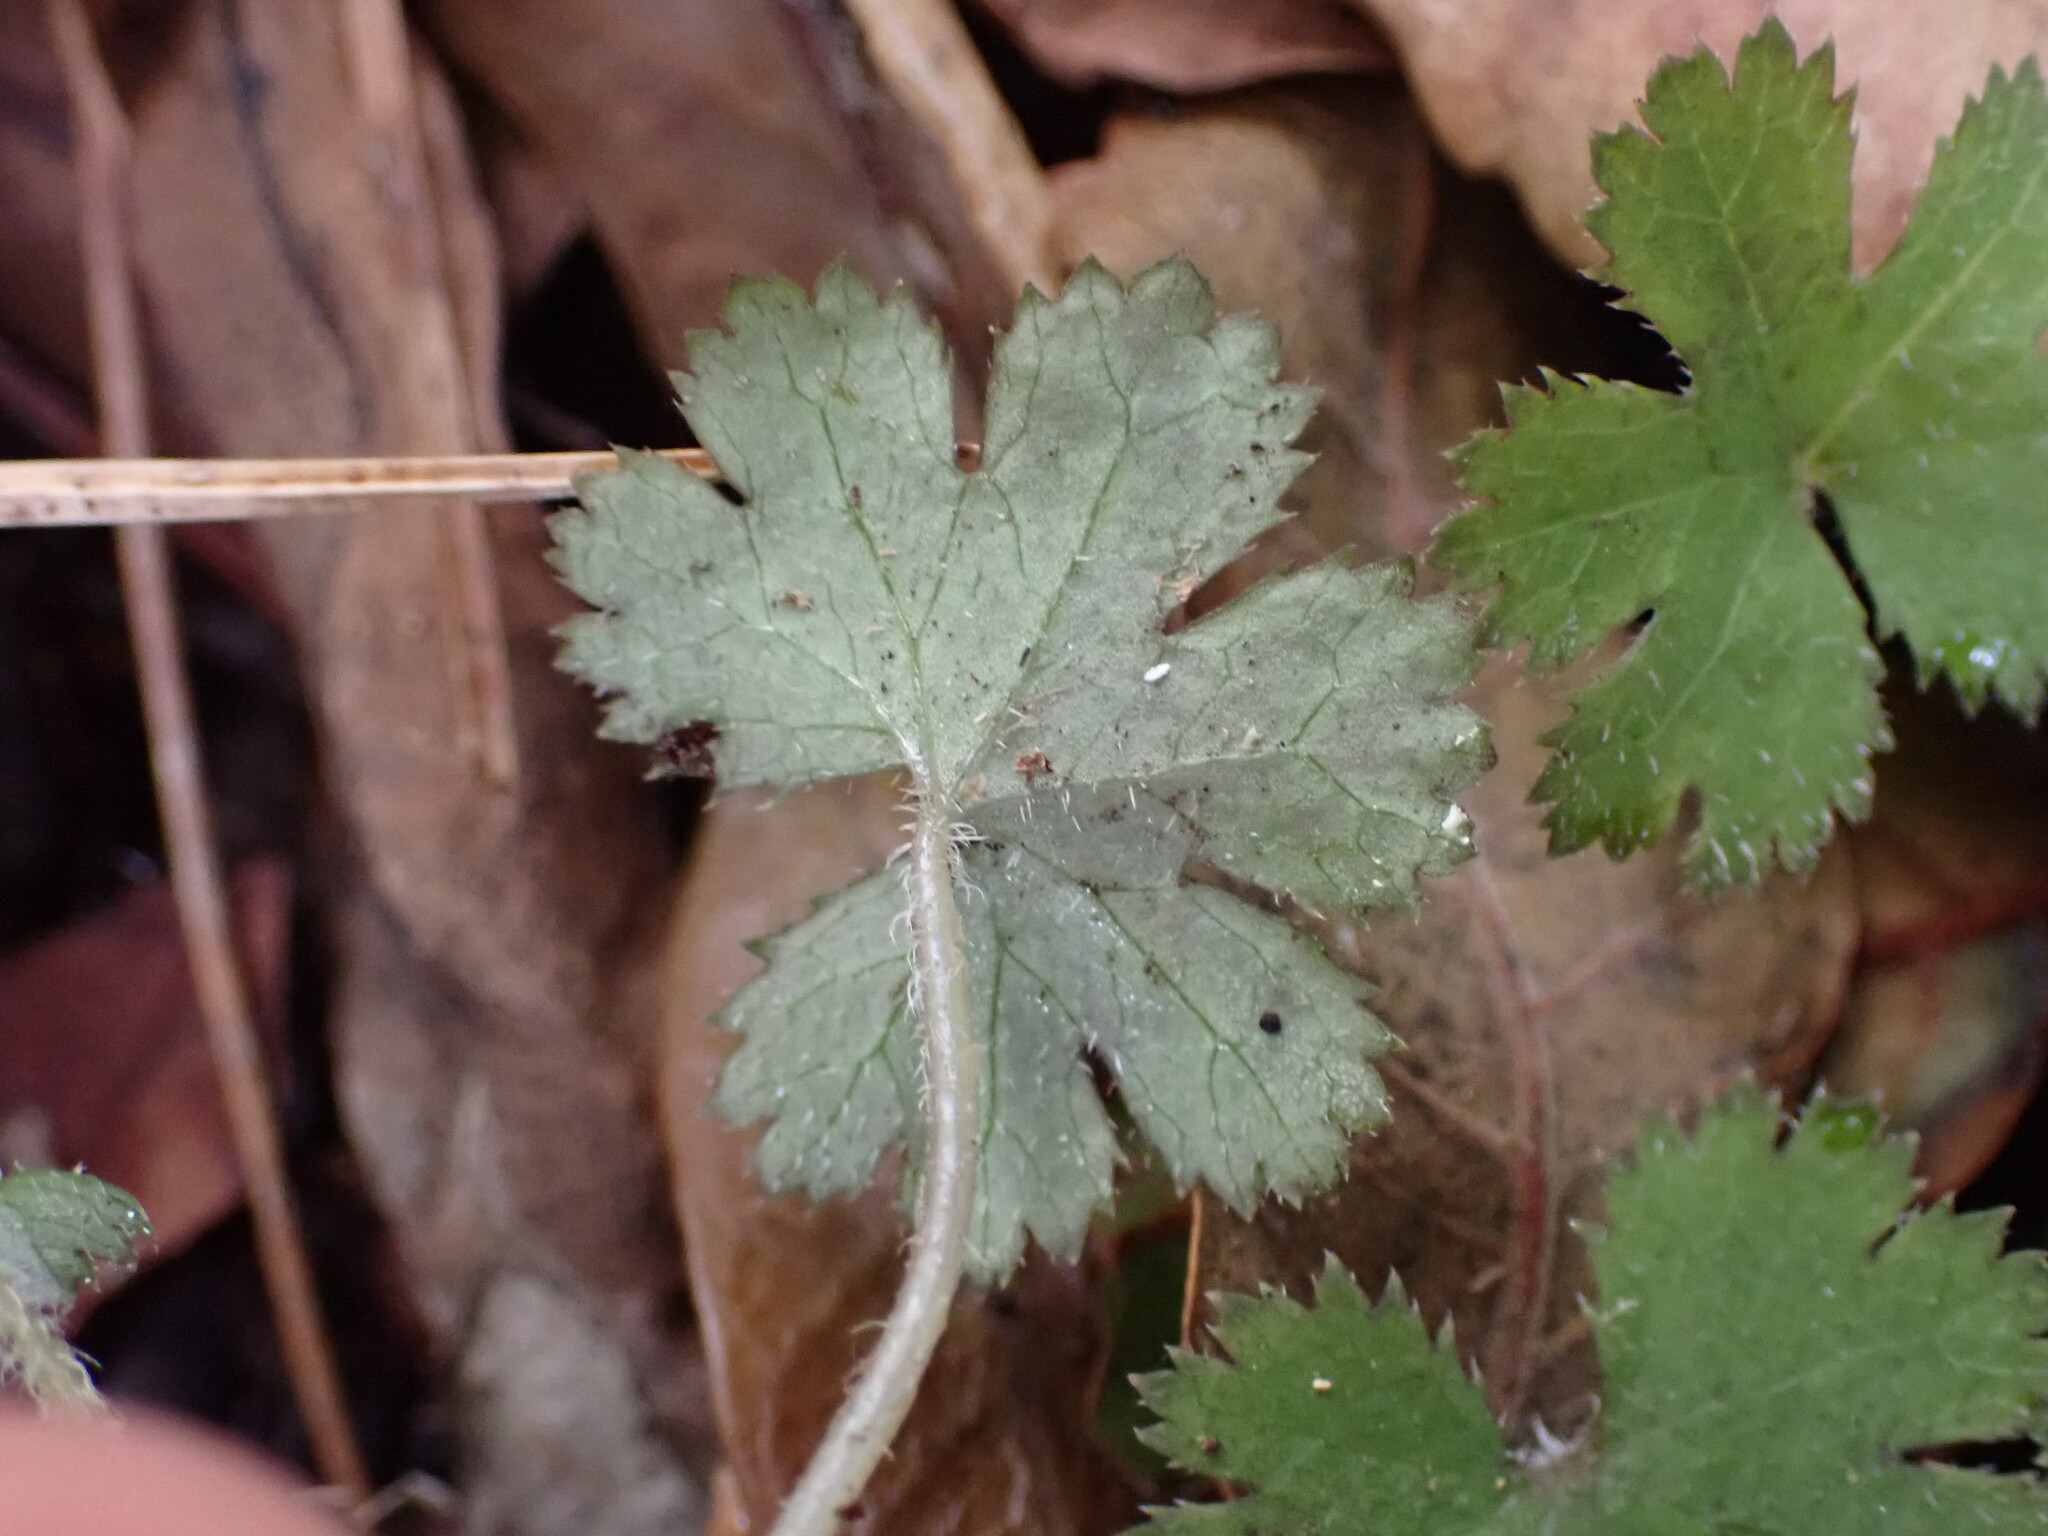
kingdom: Plantae
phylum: Tracheophyta
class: Magnoliopsida
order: Apiales
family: Araliaceae
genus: Hydrocotyle
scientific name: Hydrocotyle elongata
